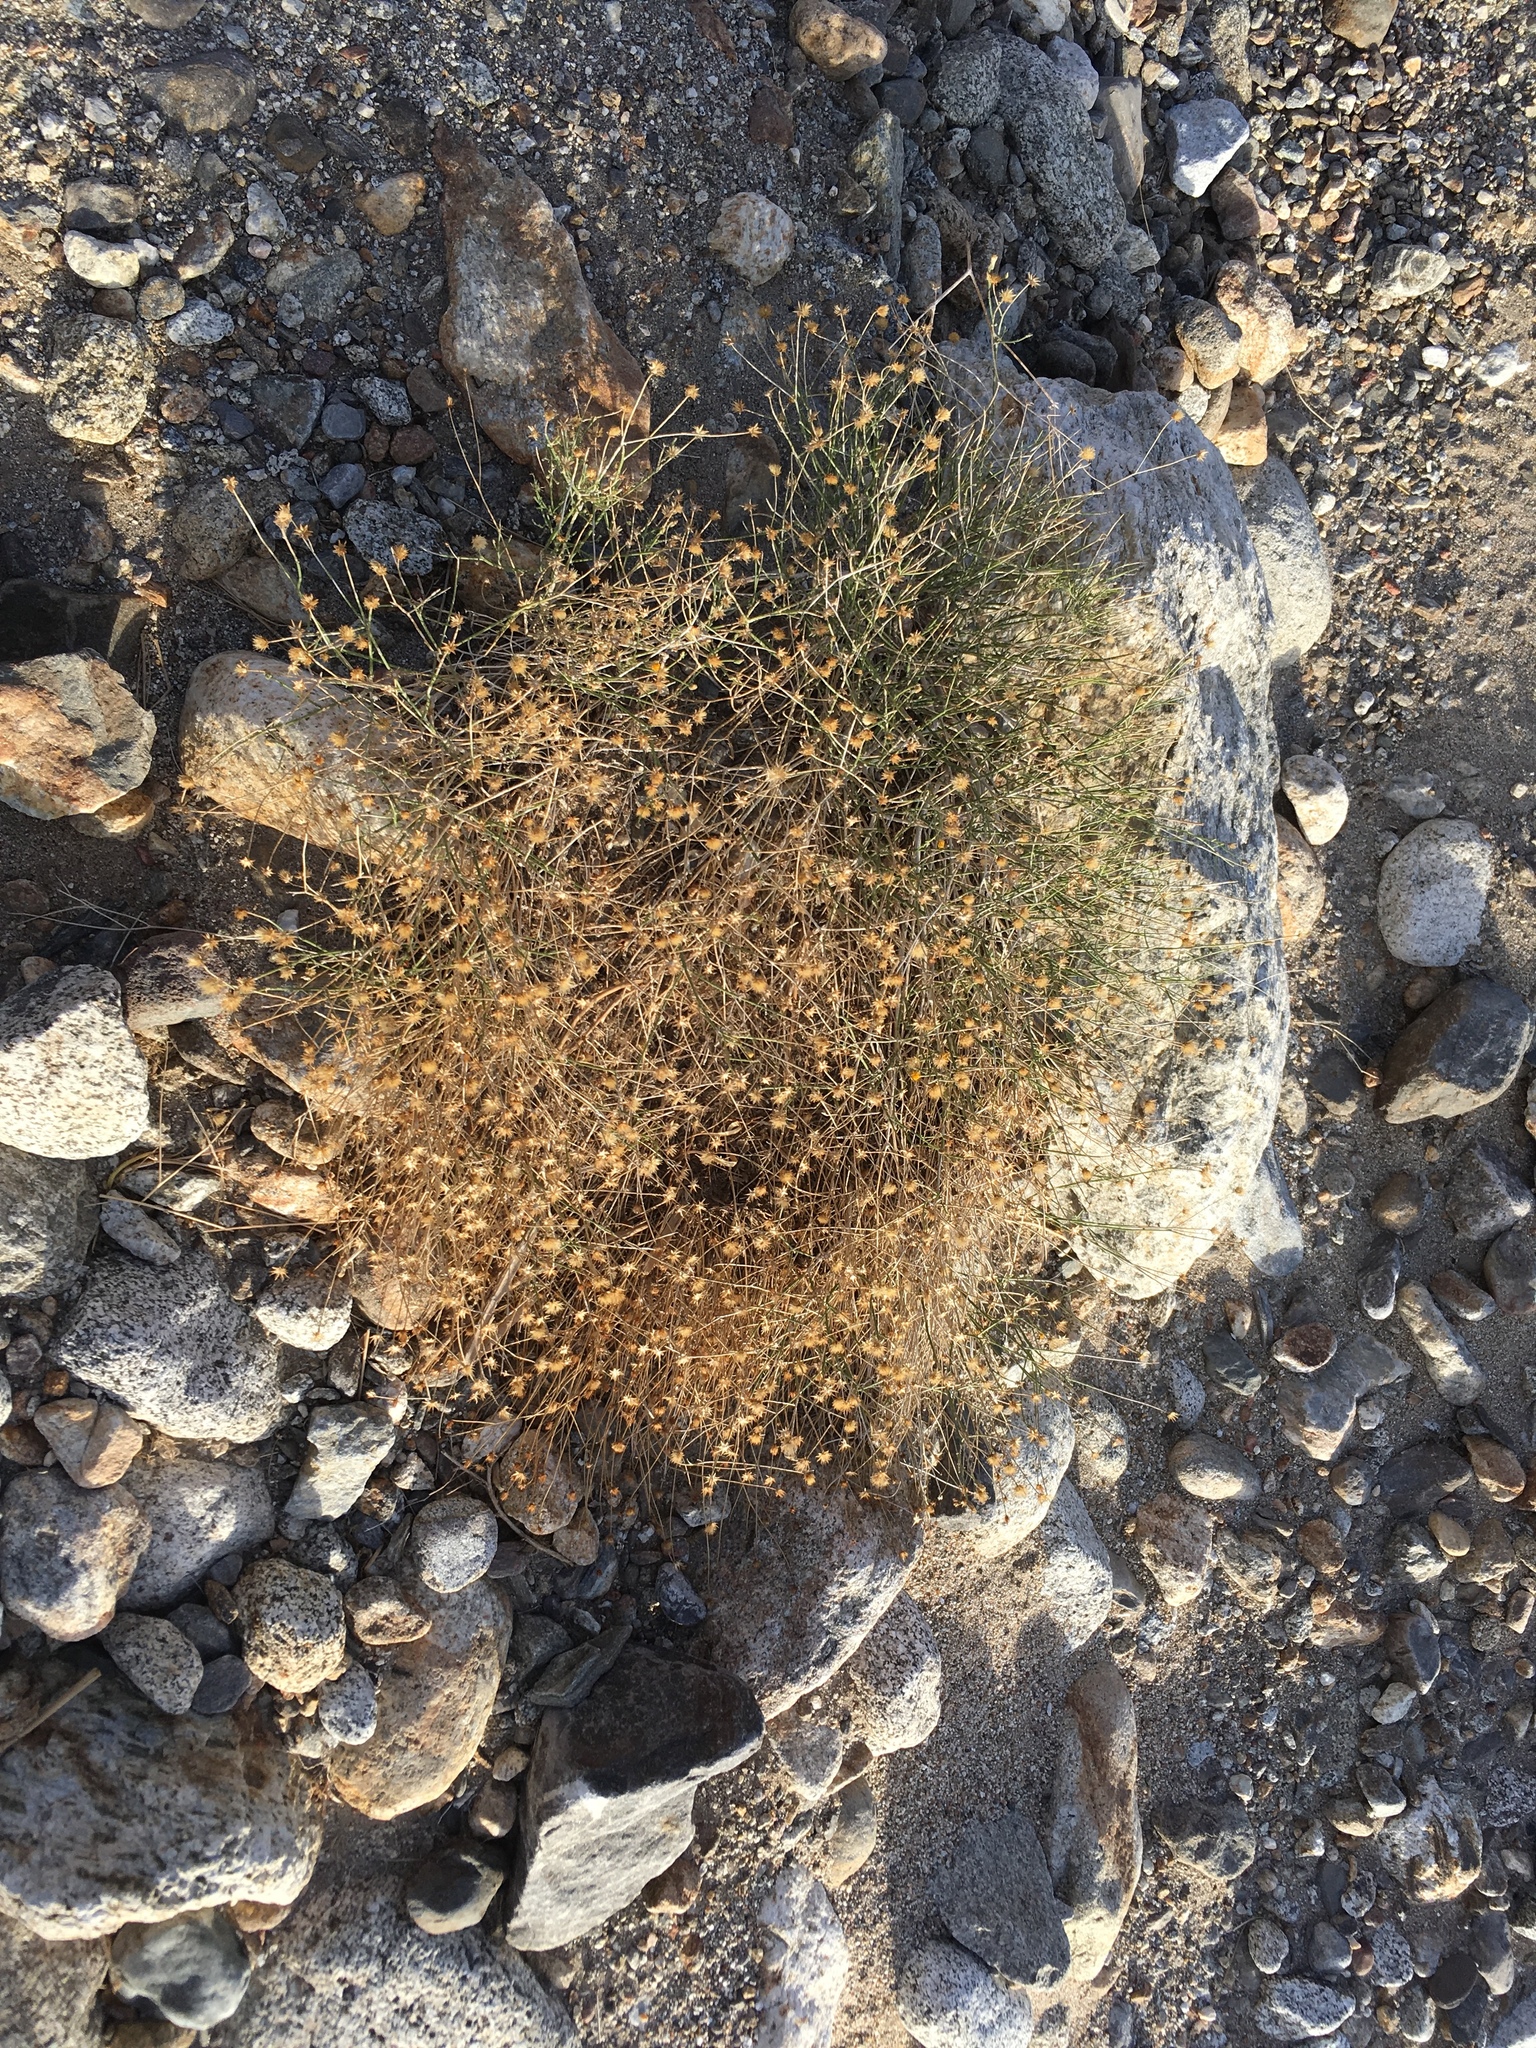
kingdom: Plantae
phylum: Tracheophyta
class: Magnoliopsida
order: Asterales
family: Asteraceae
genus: Bebbia
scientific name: Bebbia juncea
